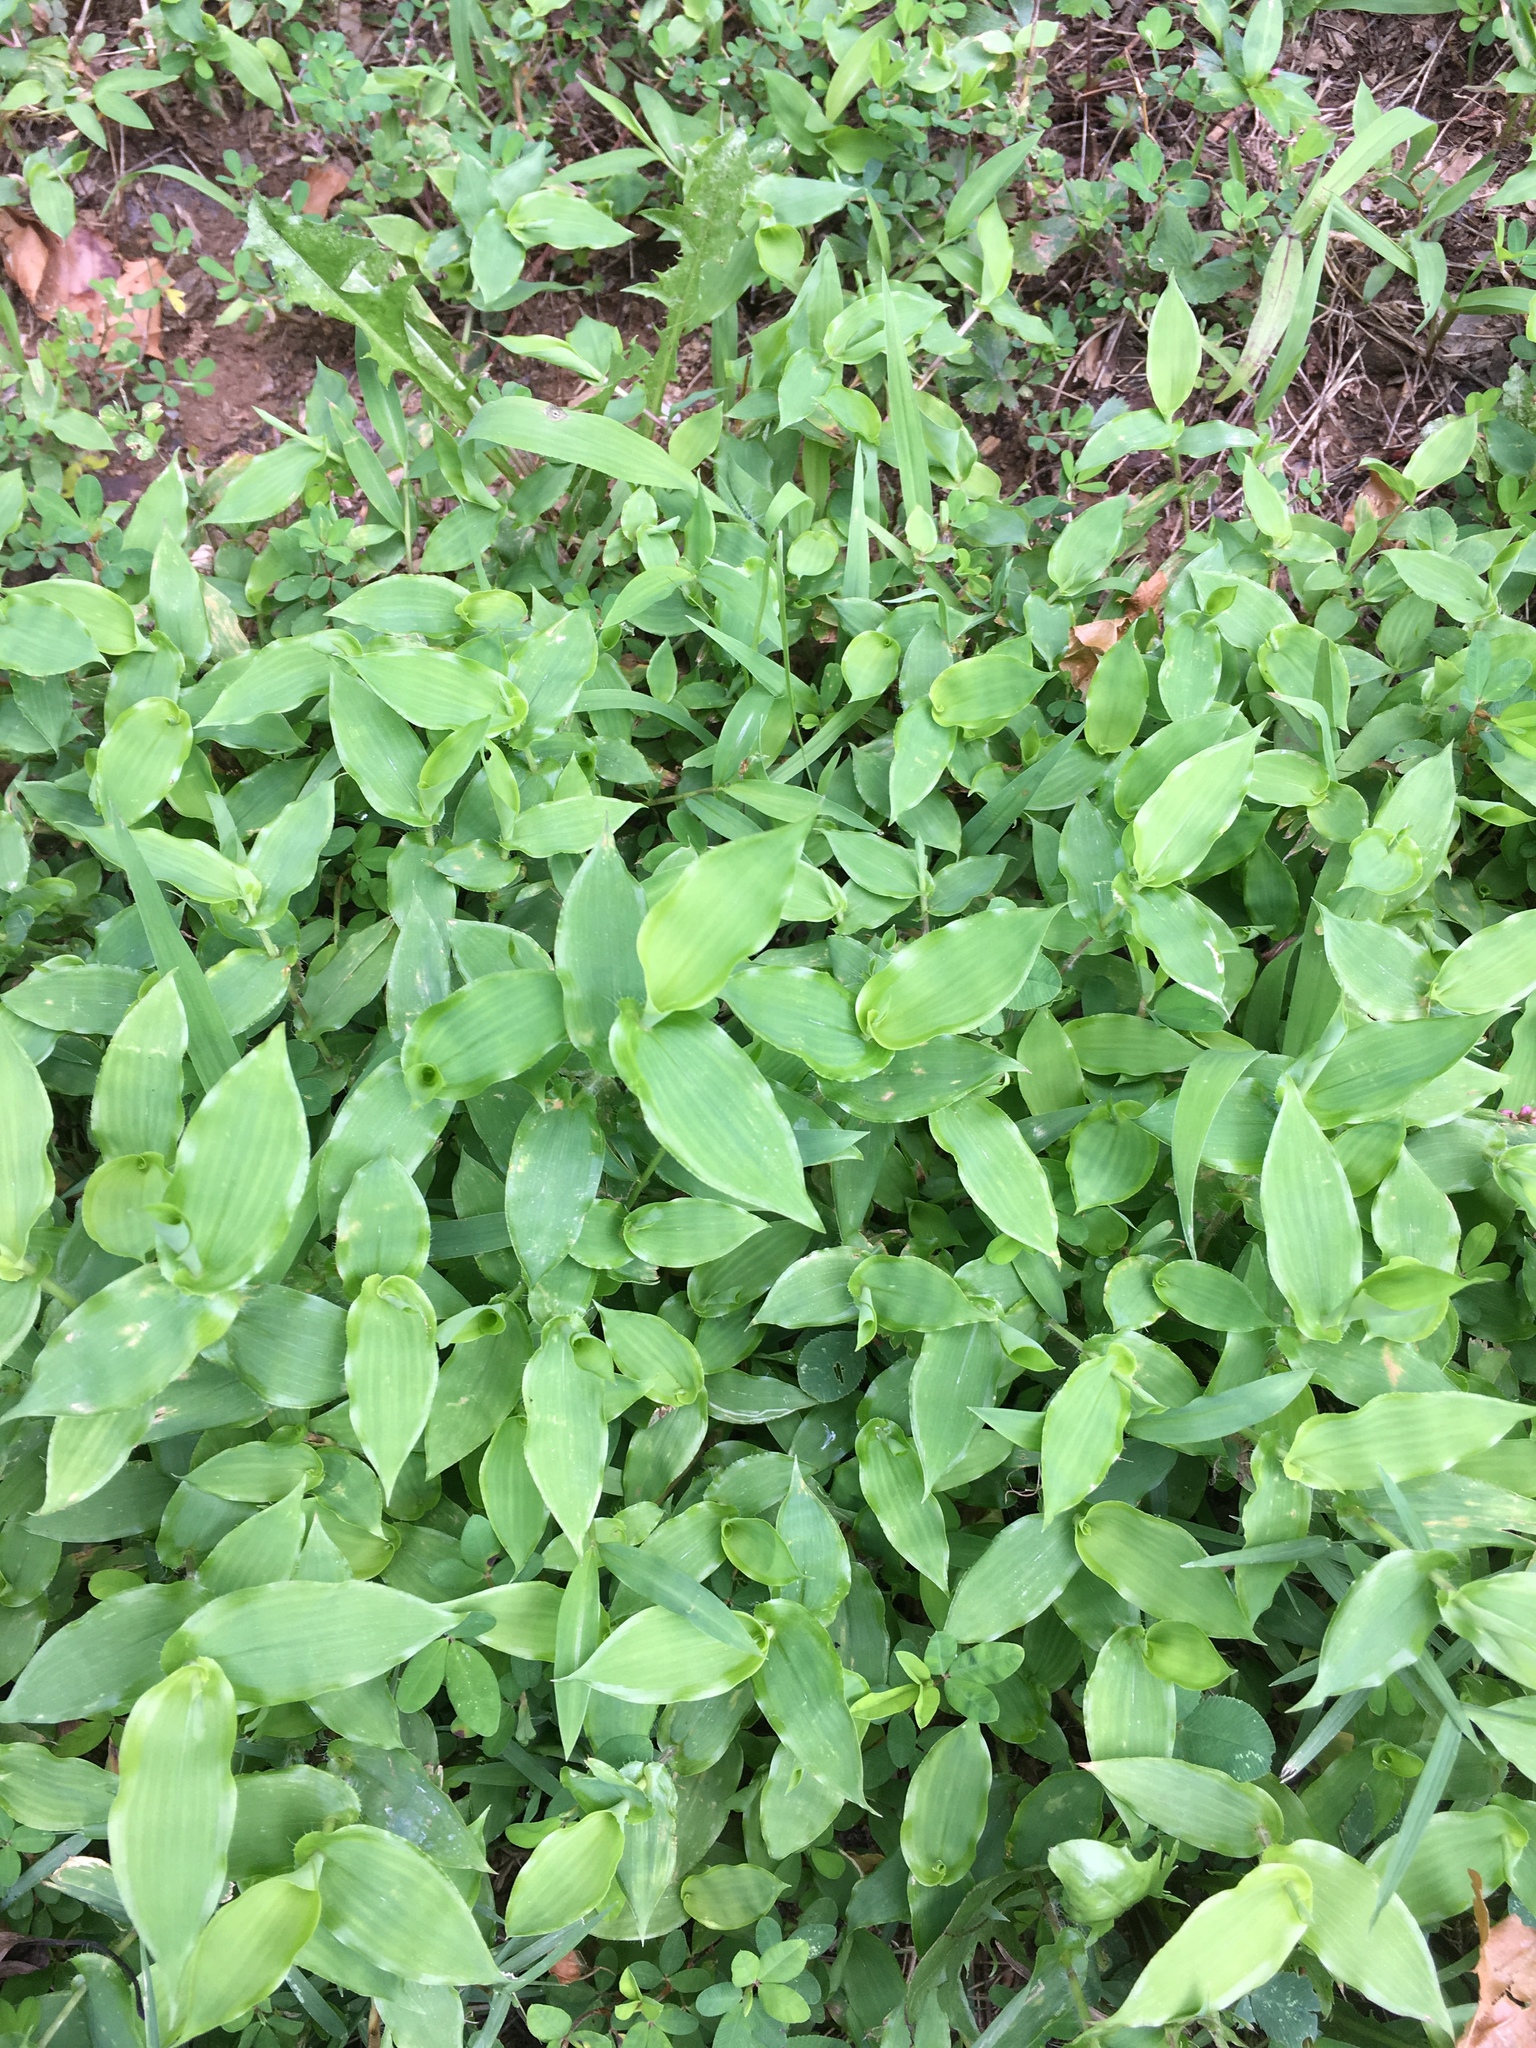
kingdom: Plantae
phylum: Tracheophyta
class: Liliopsida
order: Poales
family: Poaceae
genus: Arthraxon
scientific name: Arthraxon hispidus
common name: Small carpgrass
